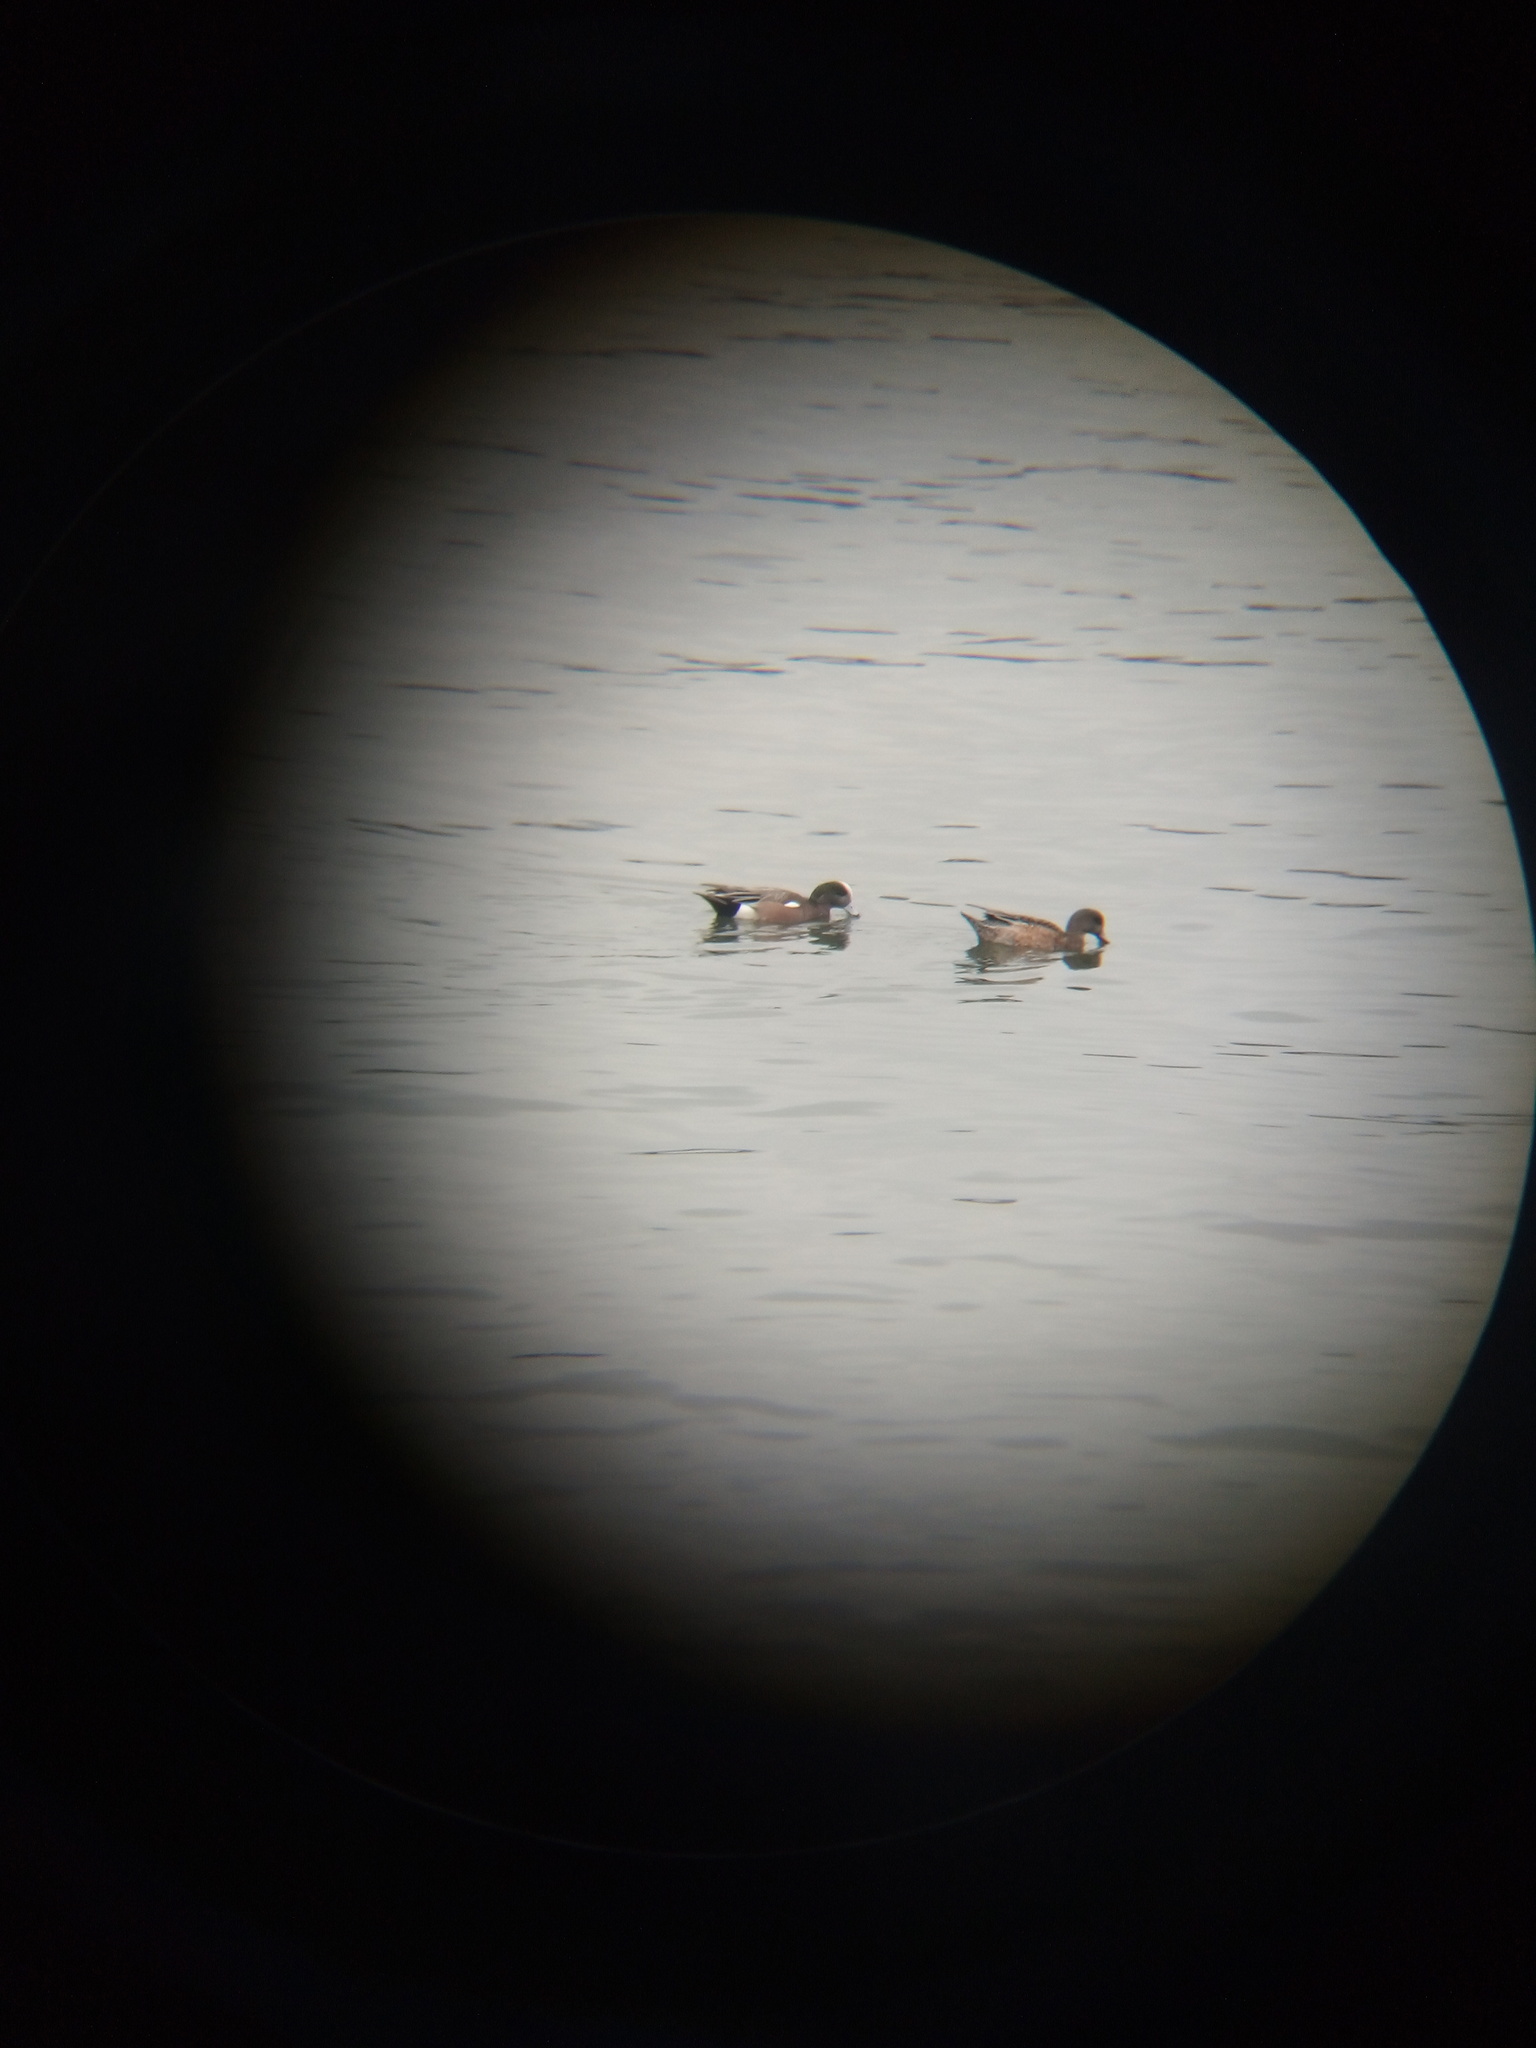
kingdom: Animalia
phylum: Chordata
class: Aves
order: Anseriformes
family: Anatidae
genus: Mareca
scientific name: Mareca americana
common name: American wigeon
